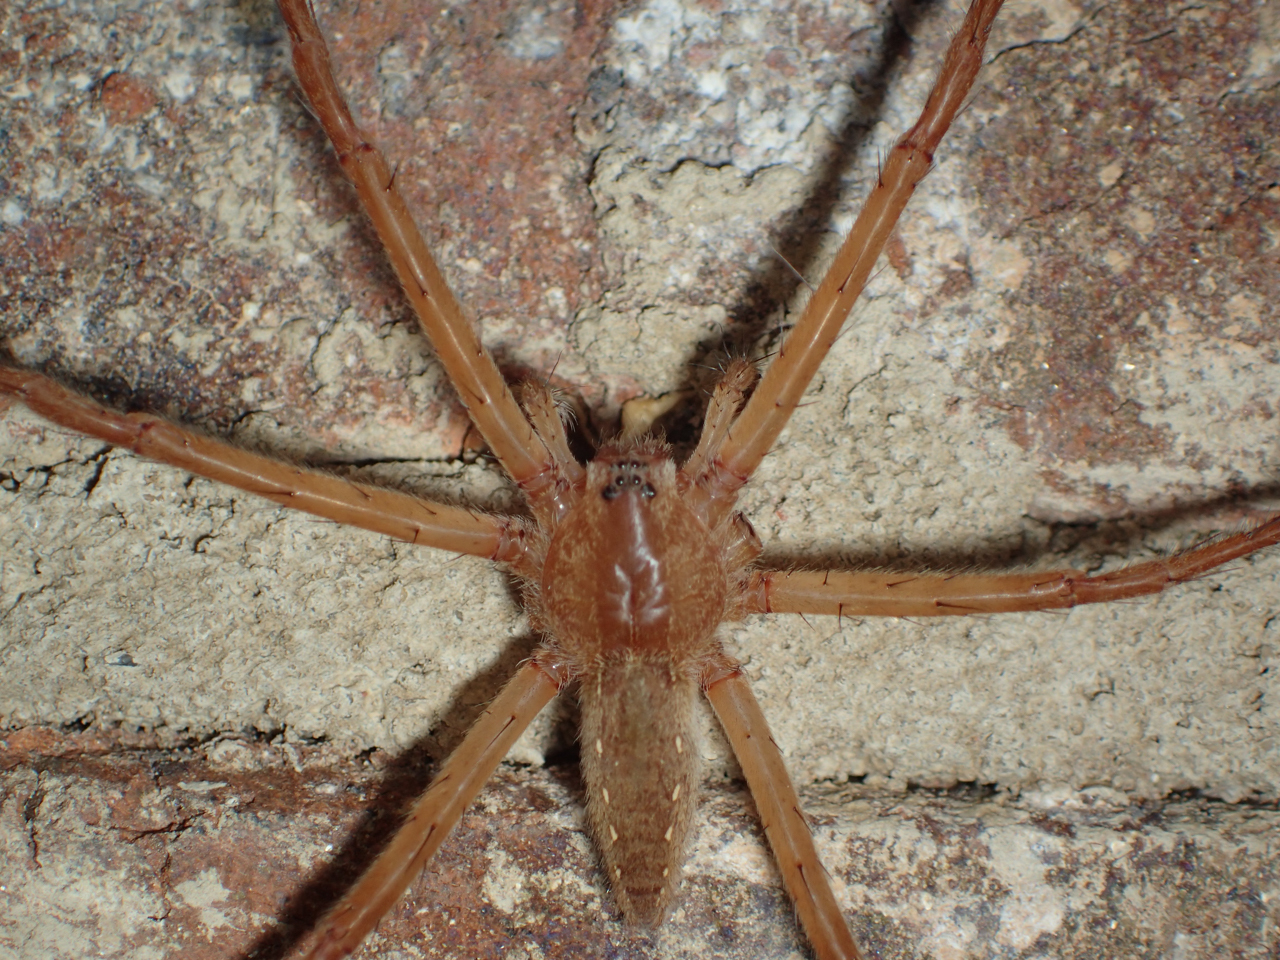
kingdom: Animalia
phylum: Arthropoda
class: Arachnida
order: Araneae
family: Pisauridae
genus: Pisaurina
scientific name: Pisaurina mira
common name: American nursery web spider
